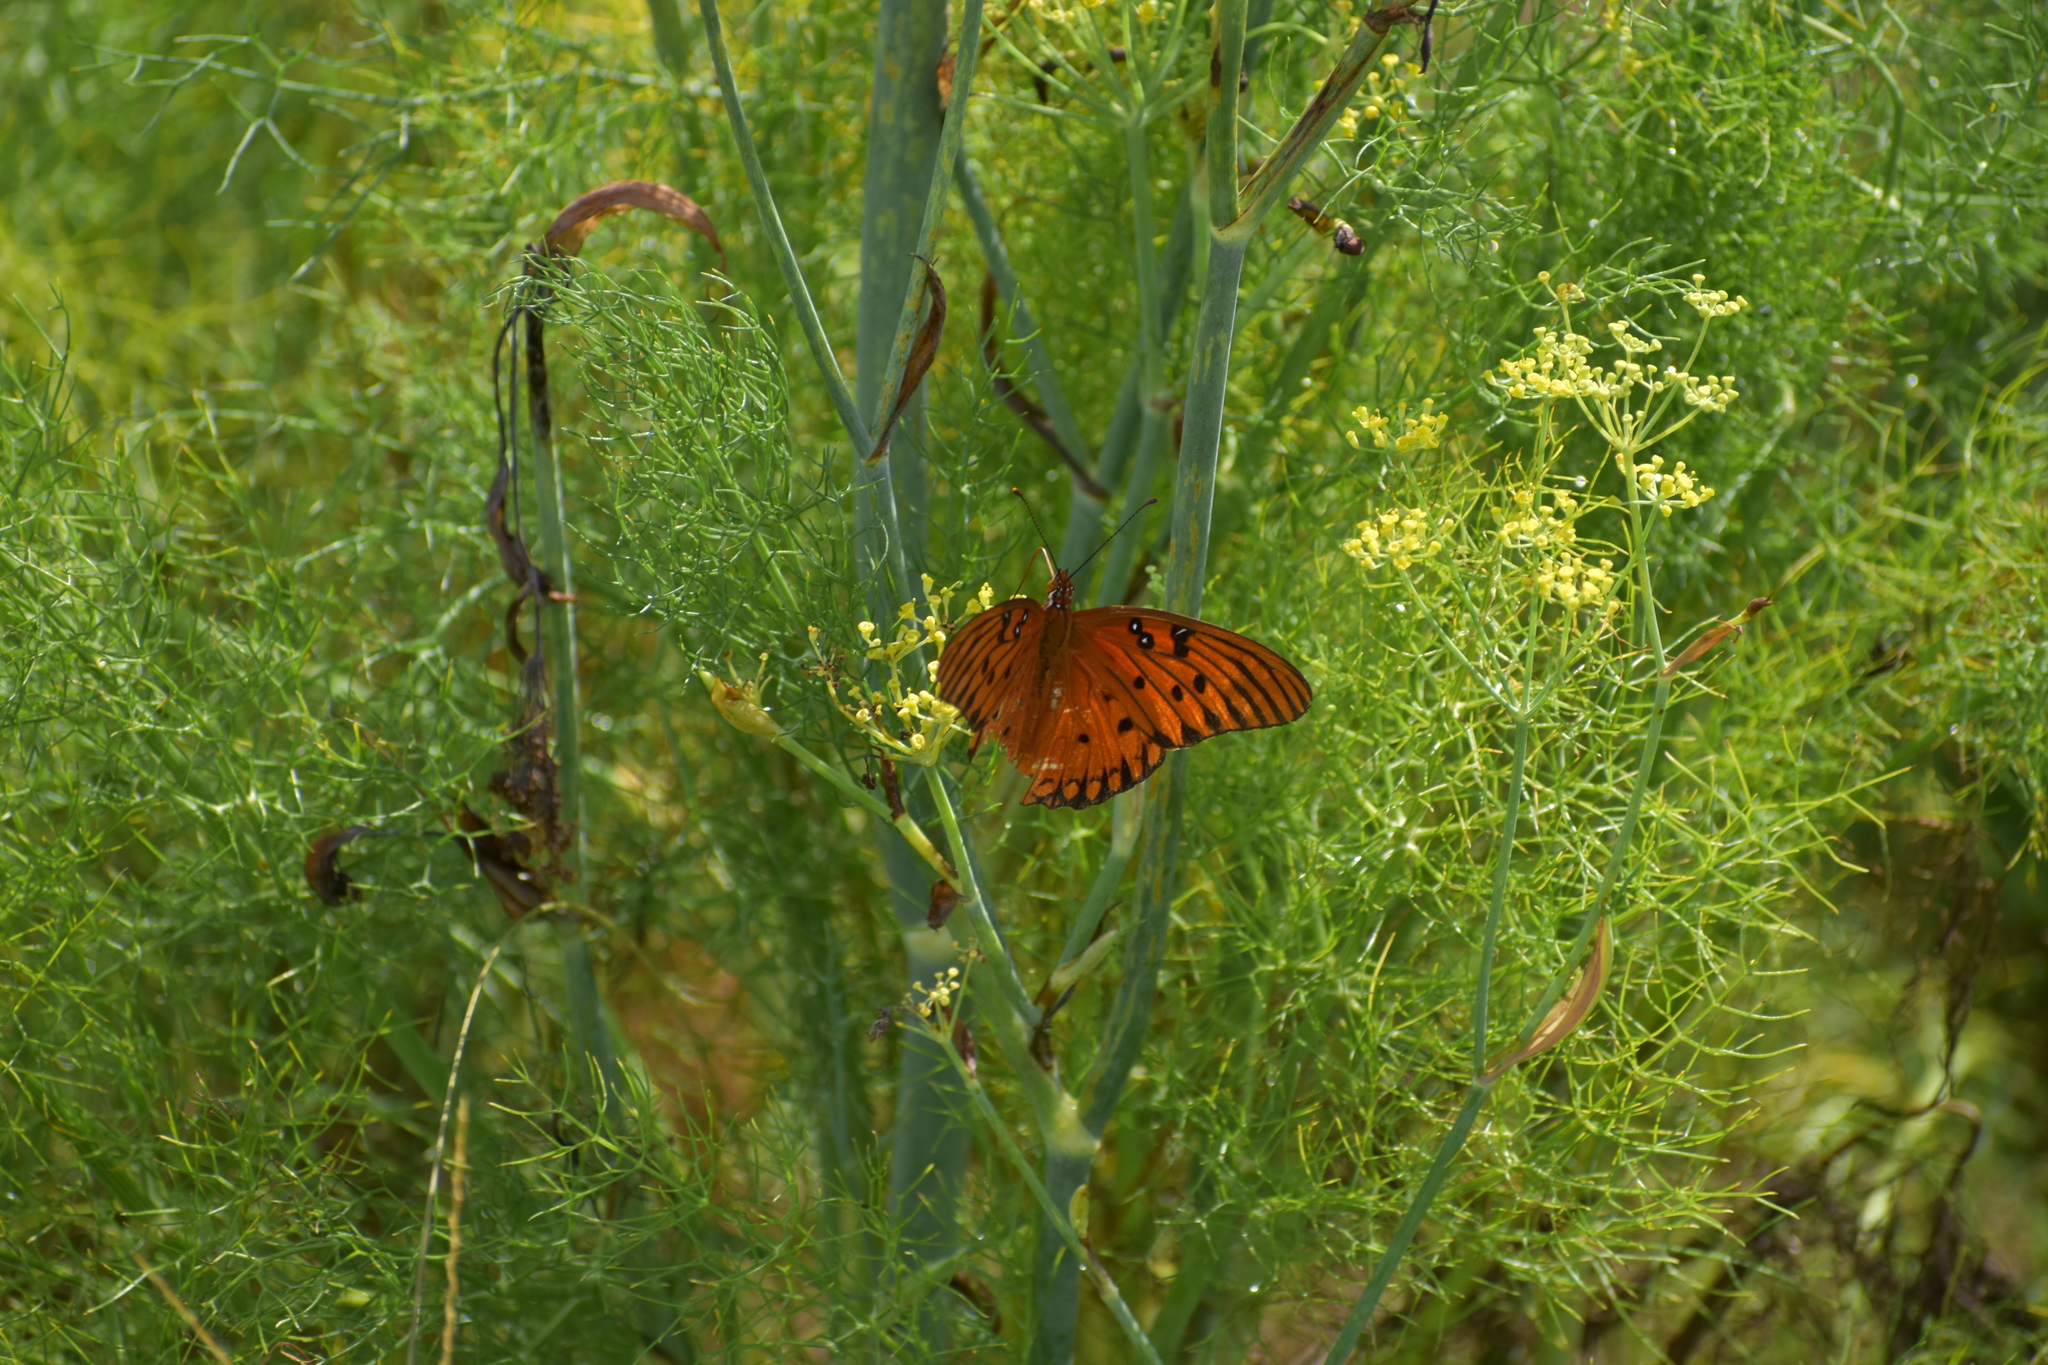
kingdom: Animalia
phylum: Arthropoda
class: Insecta
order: Lepidoptera
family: Nymphalidae
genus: Dione
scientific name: Dione vanillae
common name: Gulf fritillary
